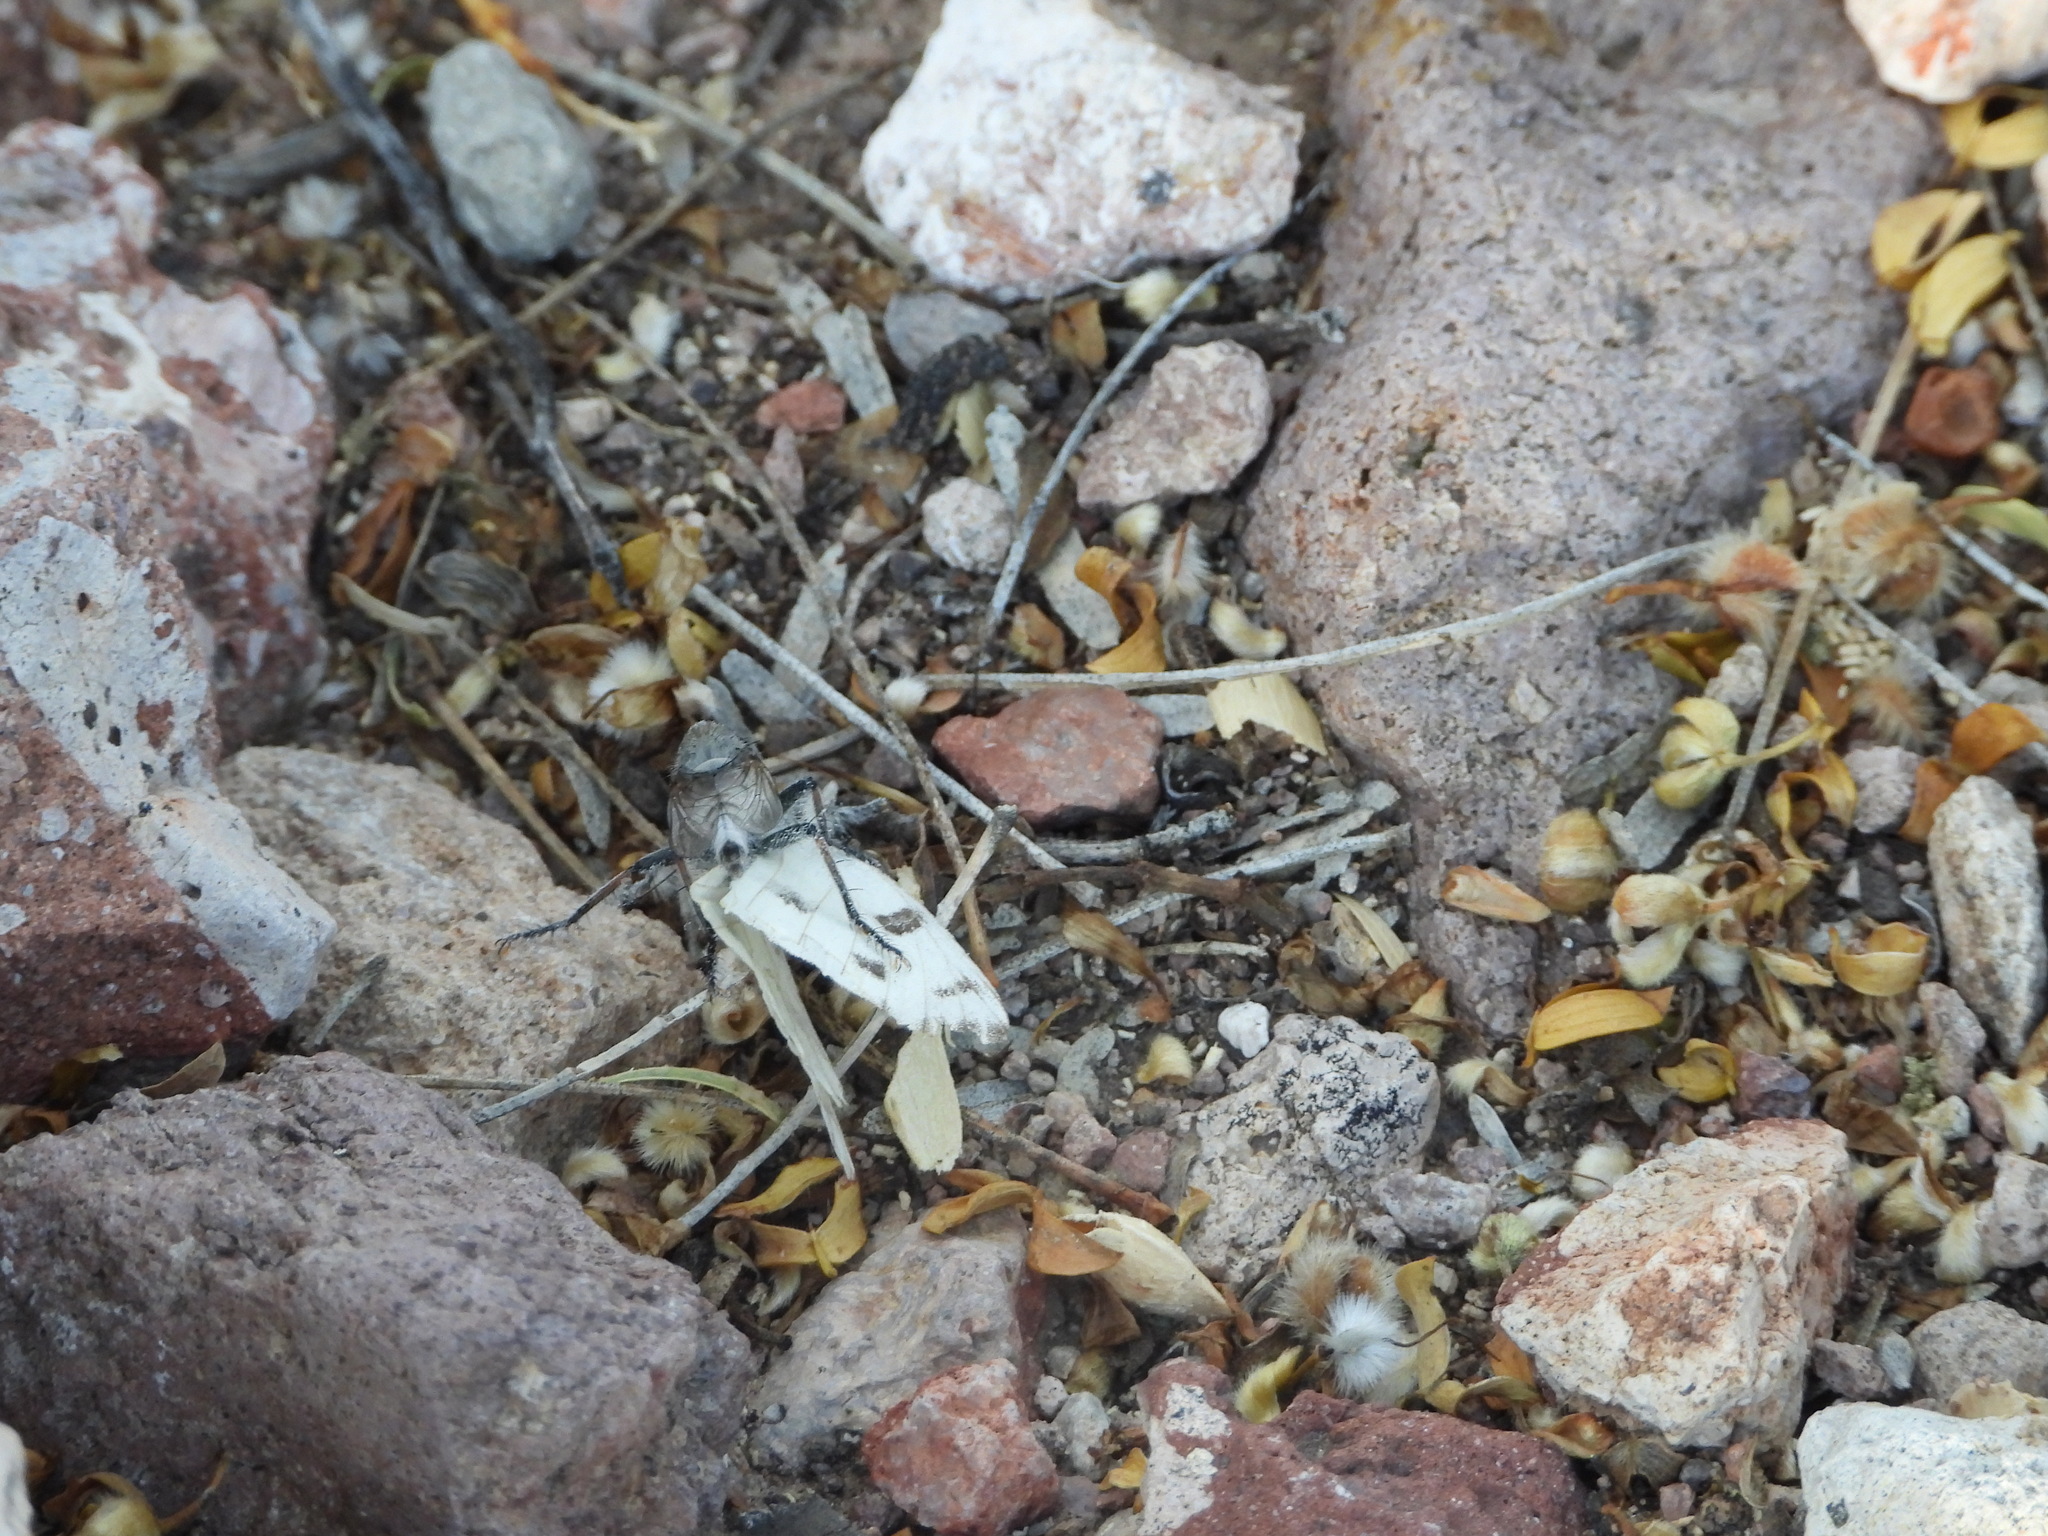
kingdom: Animalia
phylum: Arthropoda
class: Insecta
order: Lepidoptera
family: Pieridae
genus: Pontia
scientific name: Pontia protodice
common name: Checkered white
